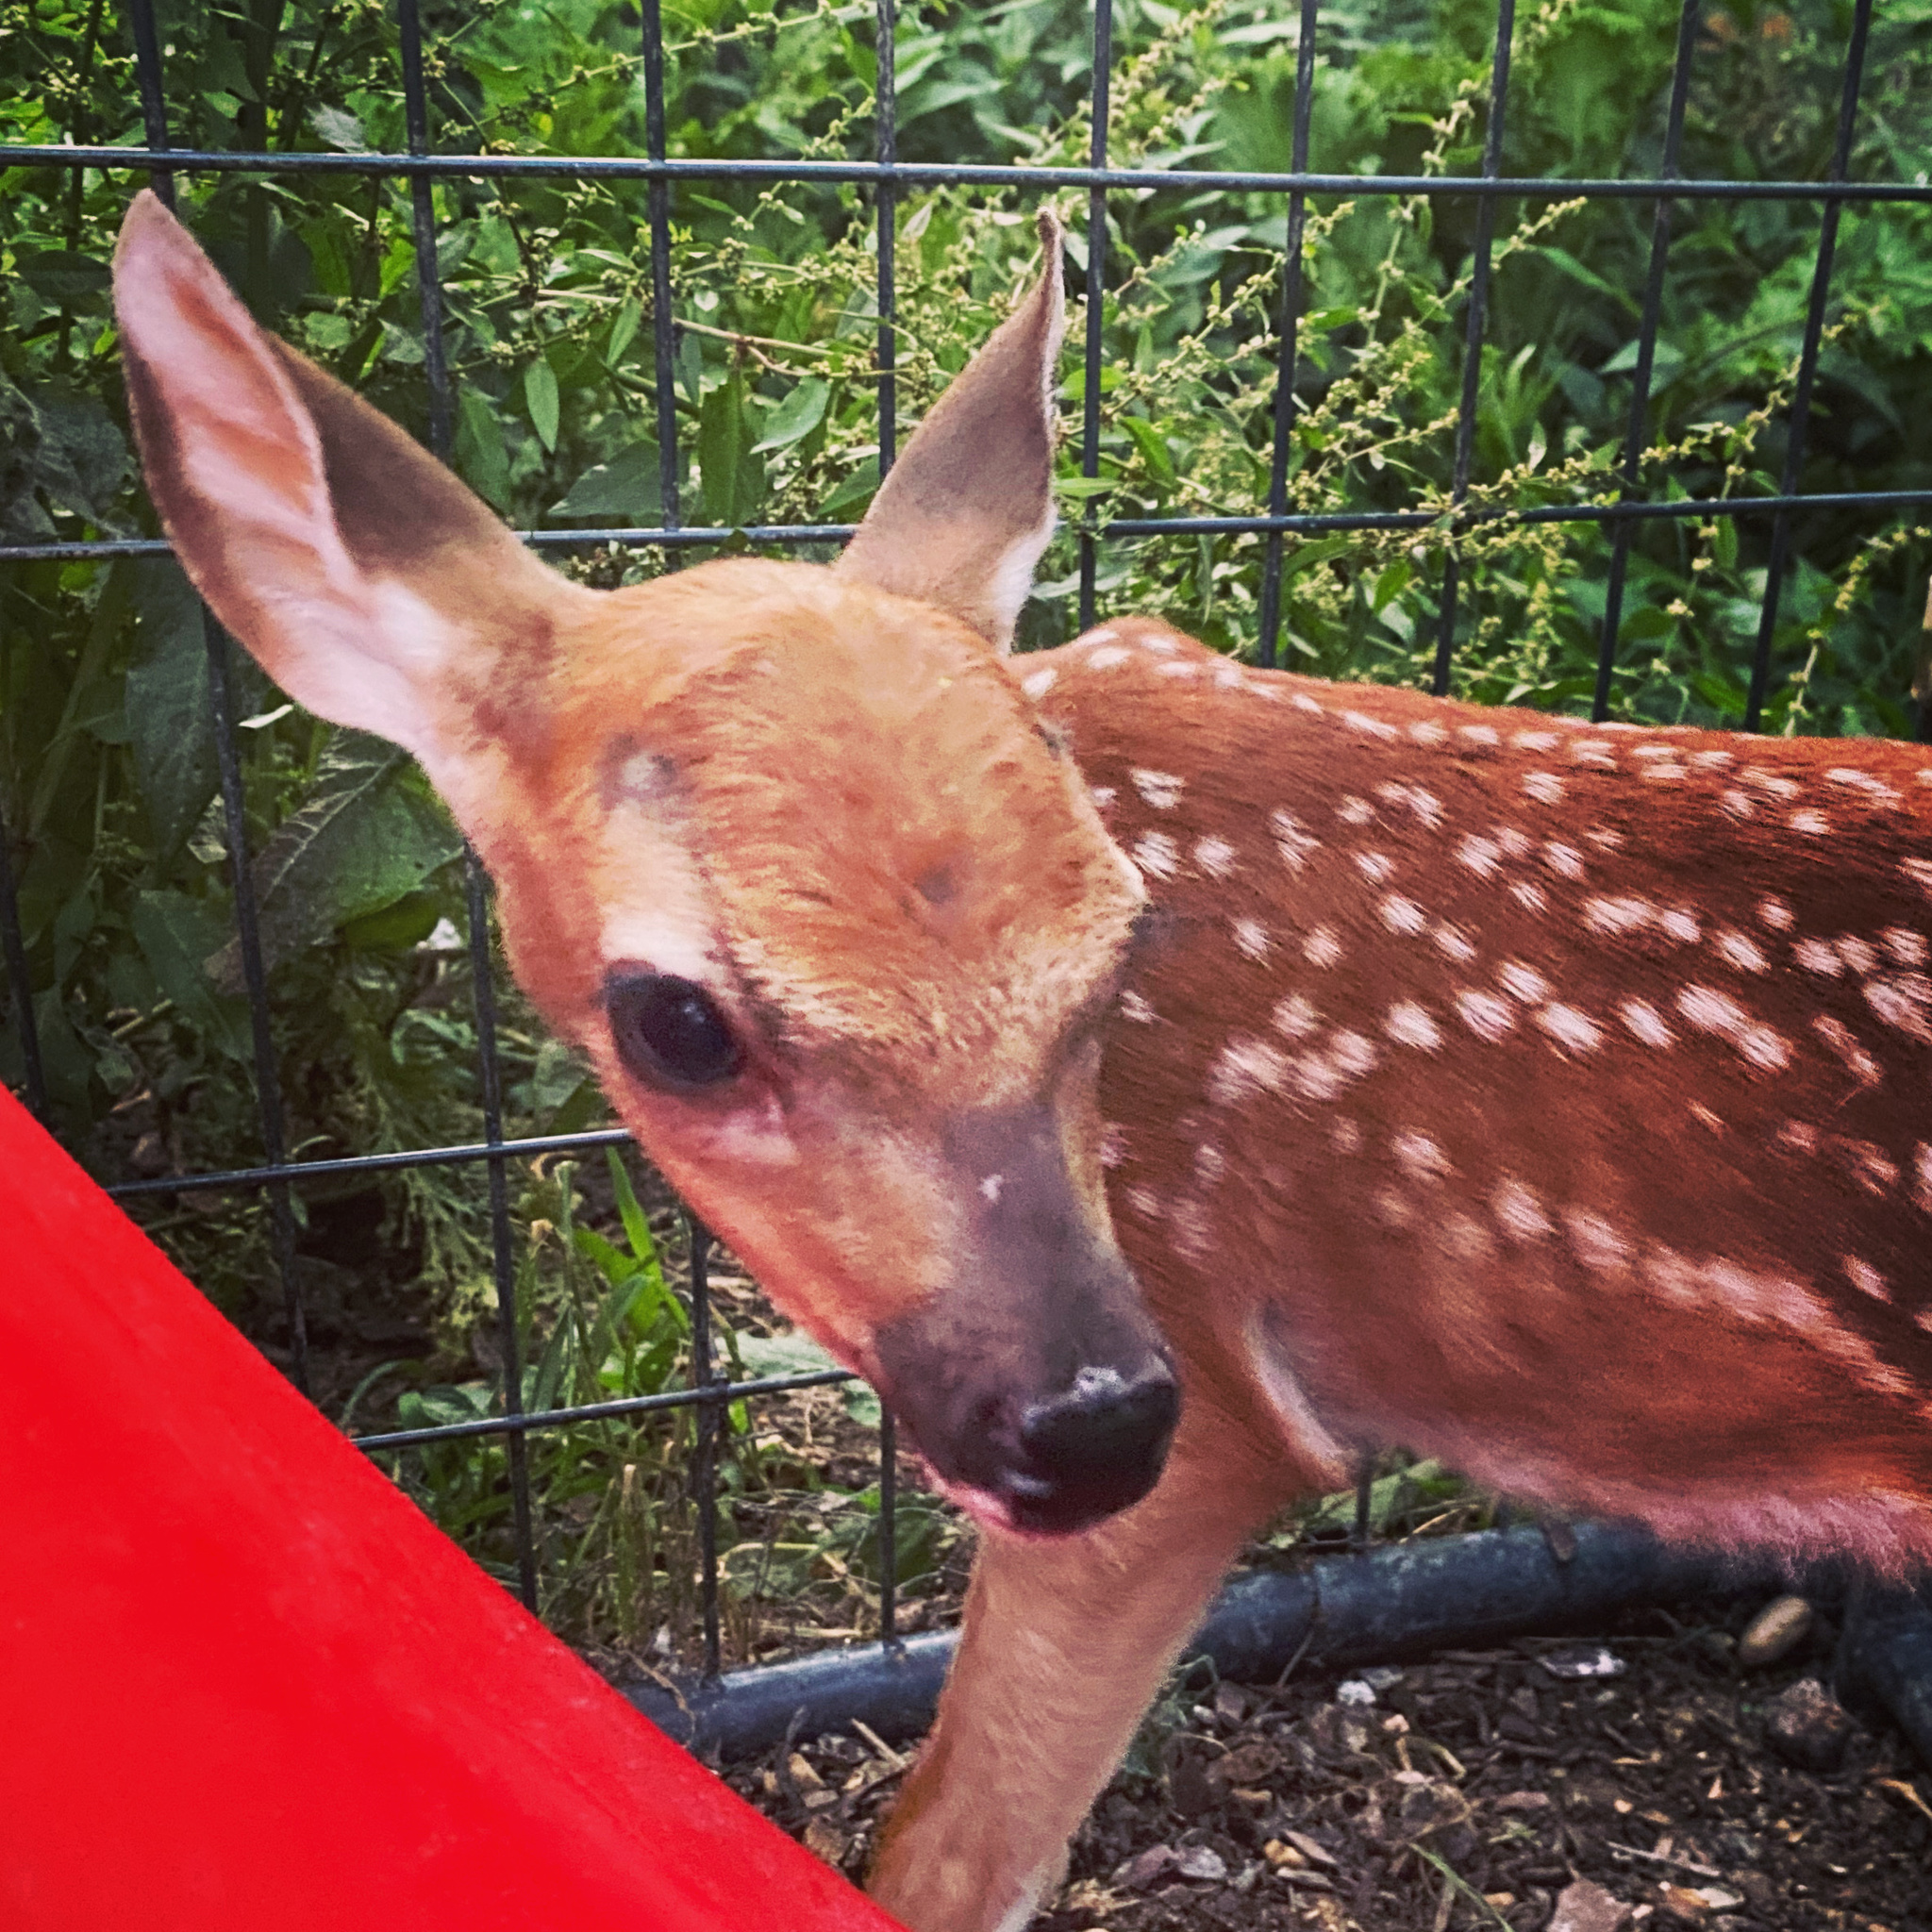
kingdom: Animalia
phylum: Chordata
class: Mammalia
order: Artiodactyla
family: Cervidae
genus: Odocoileus
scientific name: Odocoileus virginianus
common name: White-tailed deer
